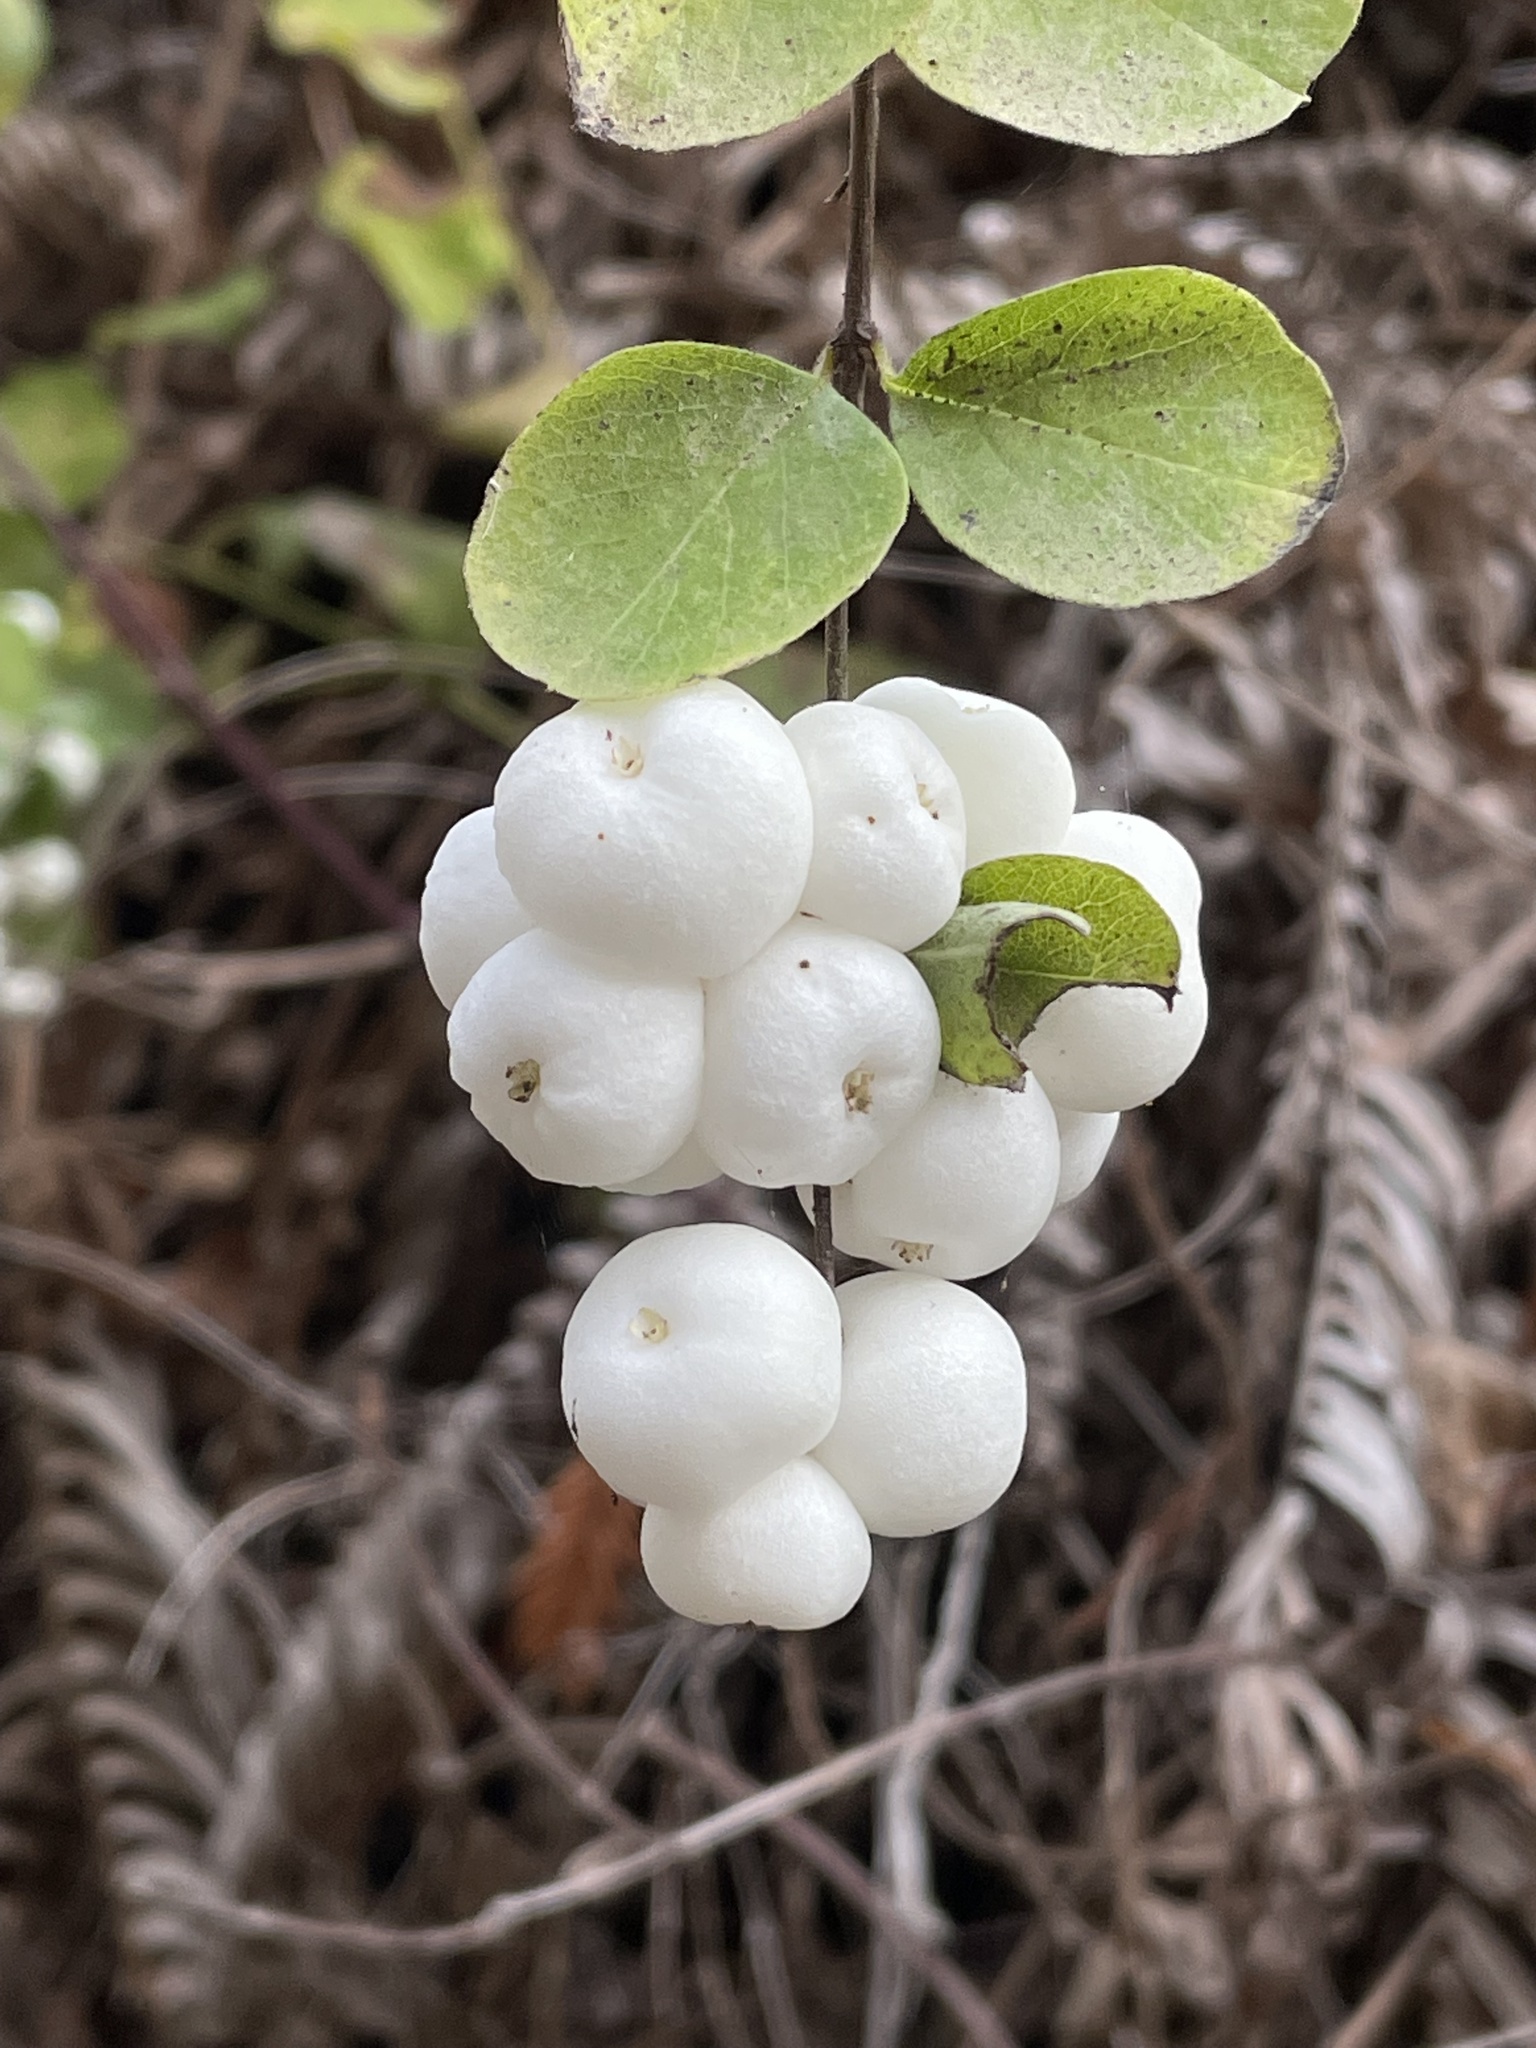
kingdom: Plantae
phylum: Tracheophyta
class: Magnoliopsida
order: Dipsacales
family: Caprifoliaceae
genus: Symphoricarpos
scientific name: Symphoricarpos mollis
